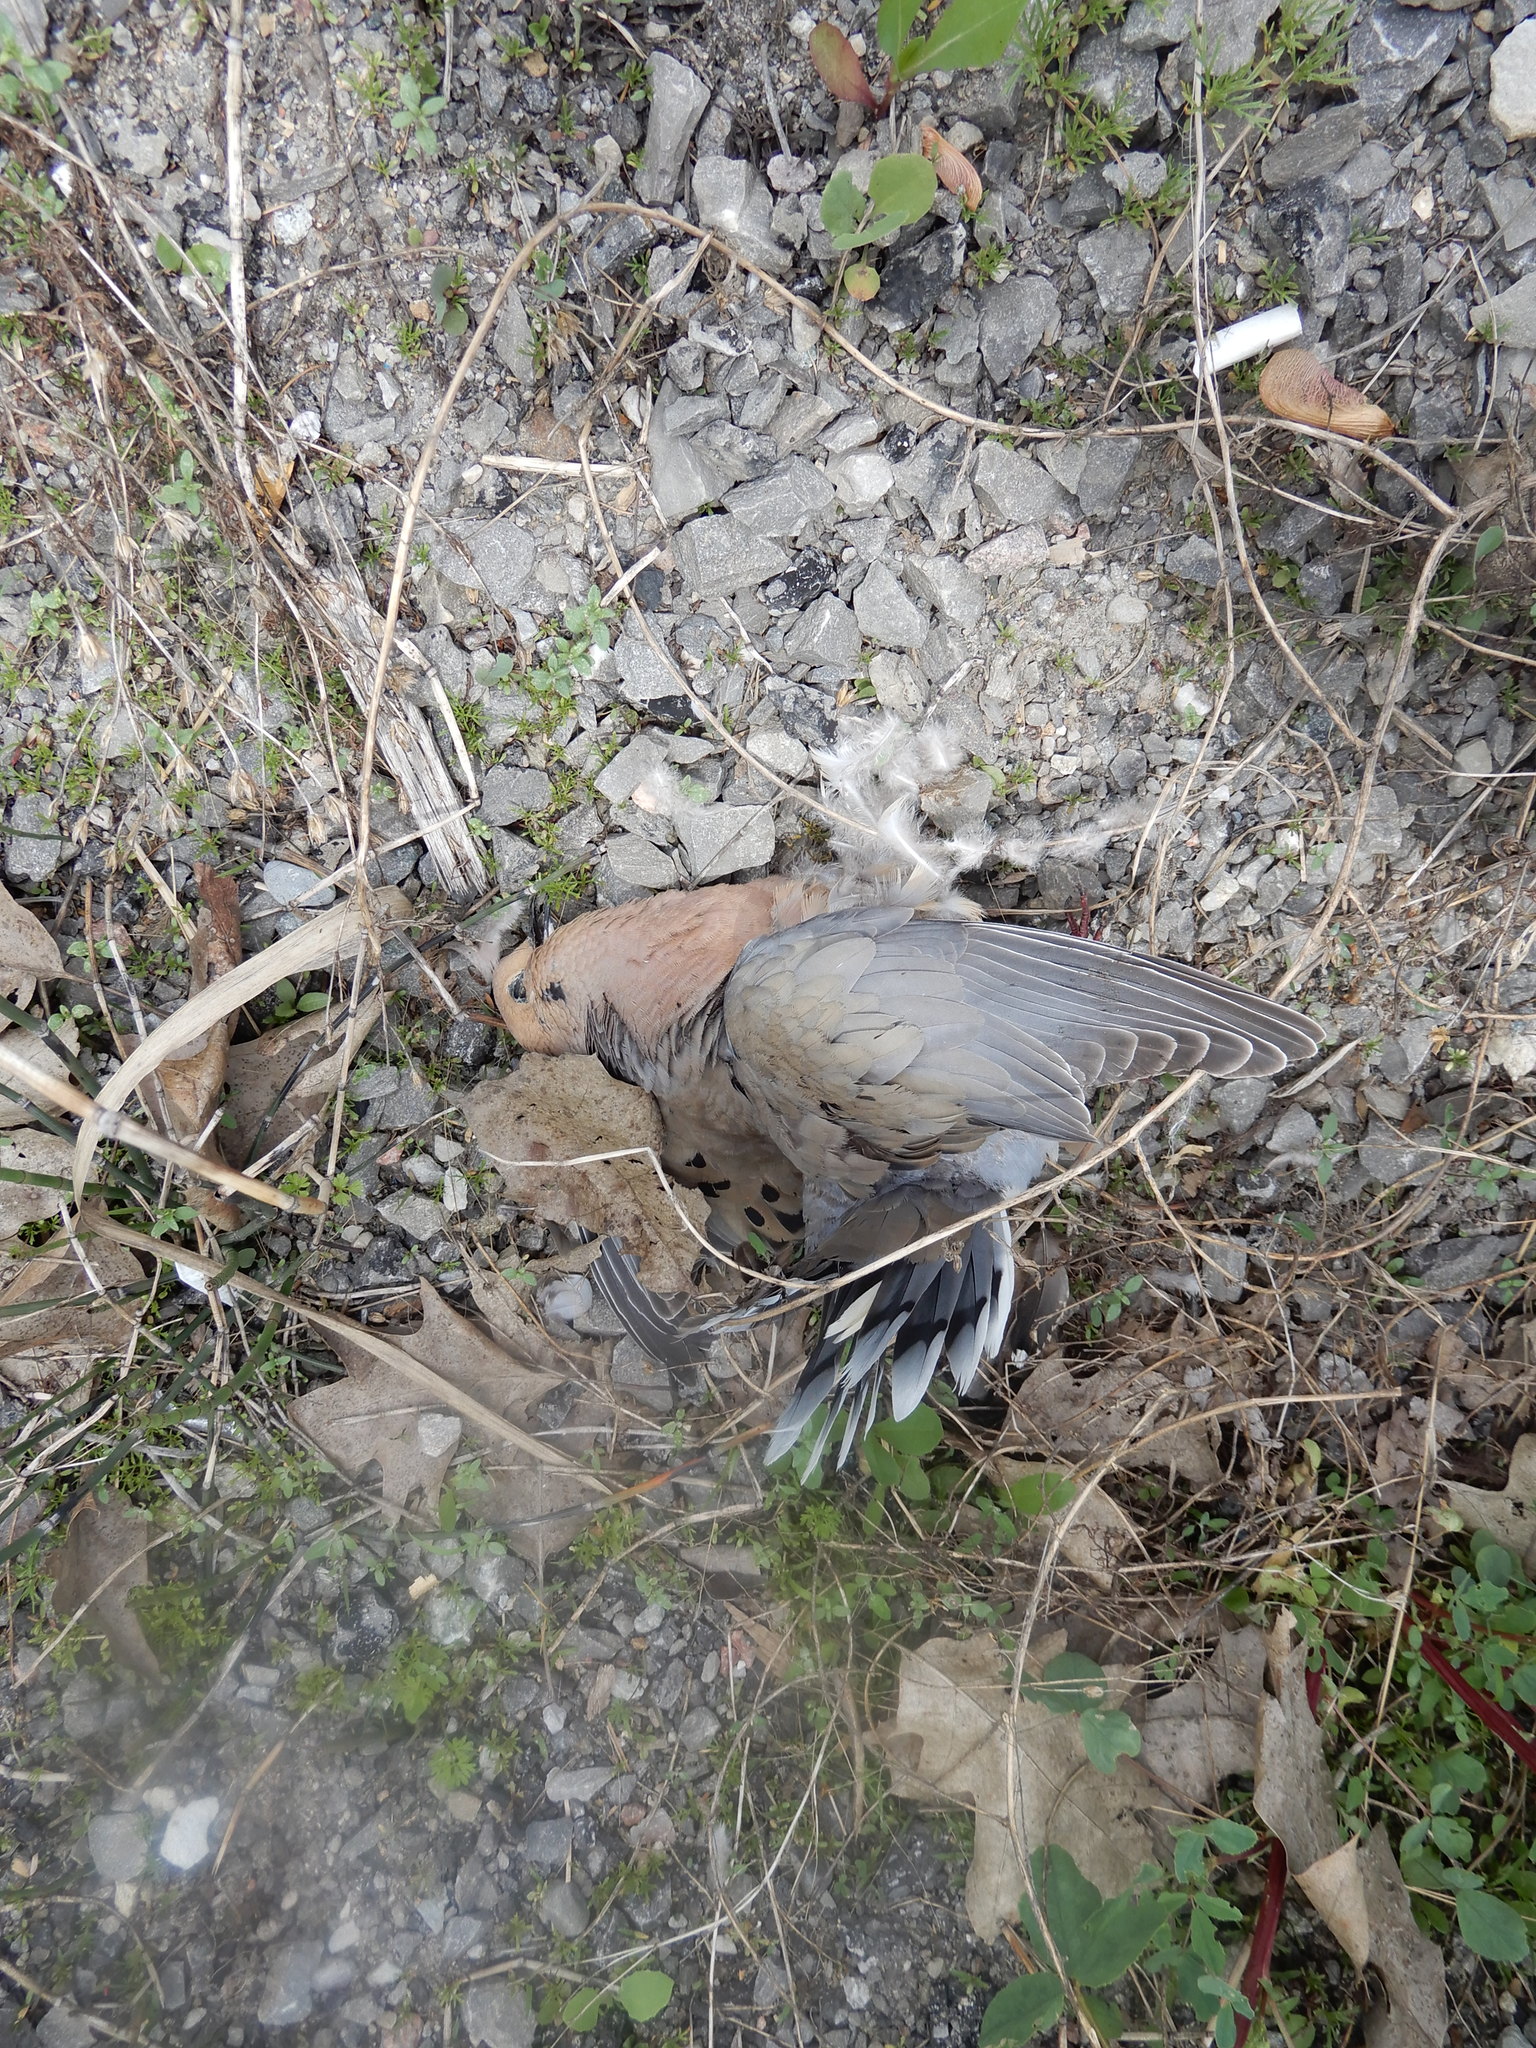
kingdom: Animalia
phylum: Chordata
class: Aves
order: Columbiformes
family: Columbidae
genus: Zenaida
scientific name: Zenaida macroura
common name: Mourning dove
